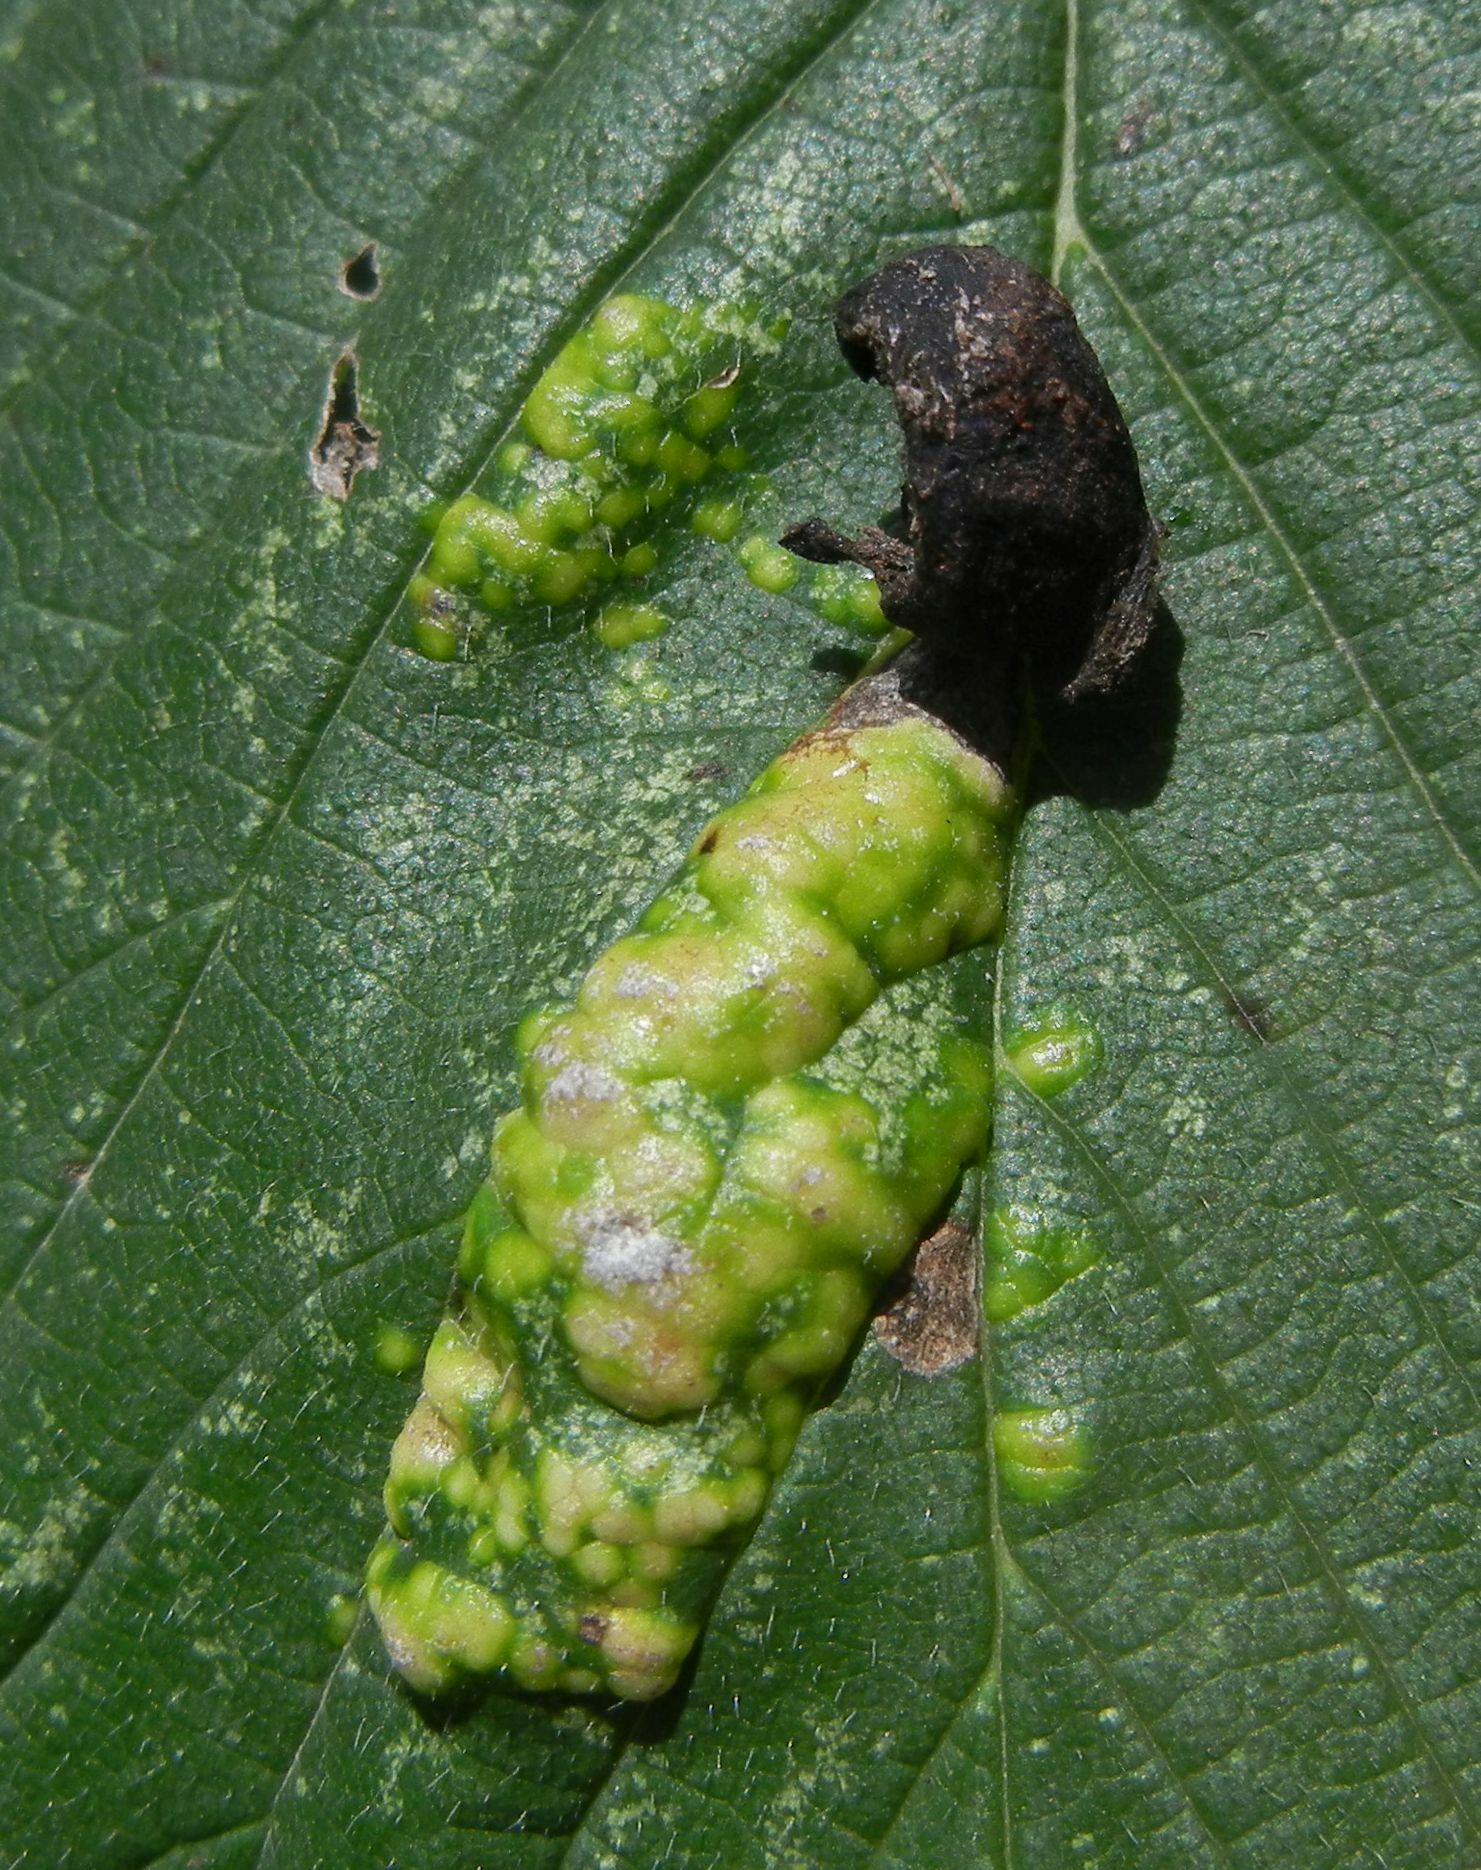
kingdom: Animalia
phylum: Arthropoda
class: Insecta
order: Hemiptera
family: Aphididae
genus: Tetraneura
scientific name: Tetraneura ulmi
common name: Aphid
